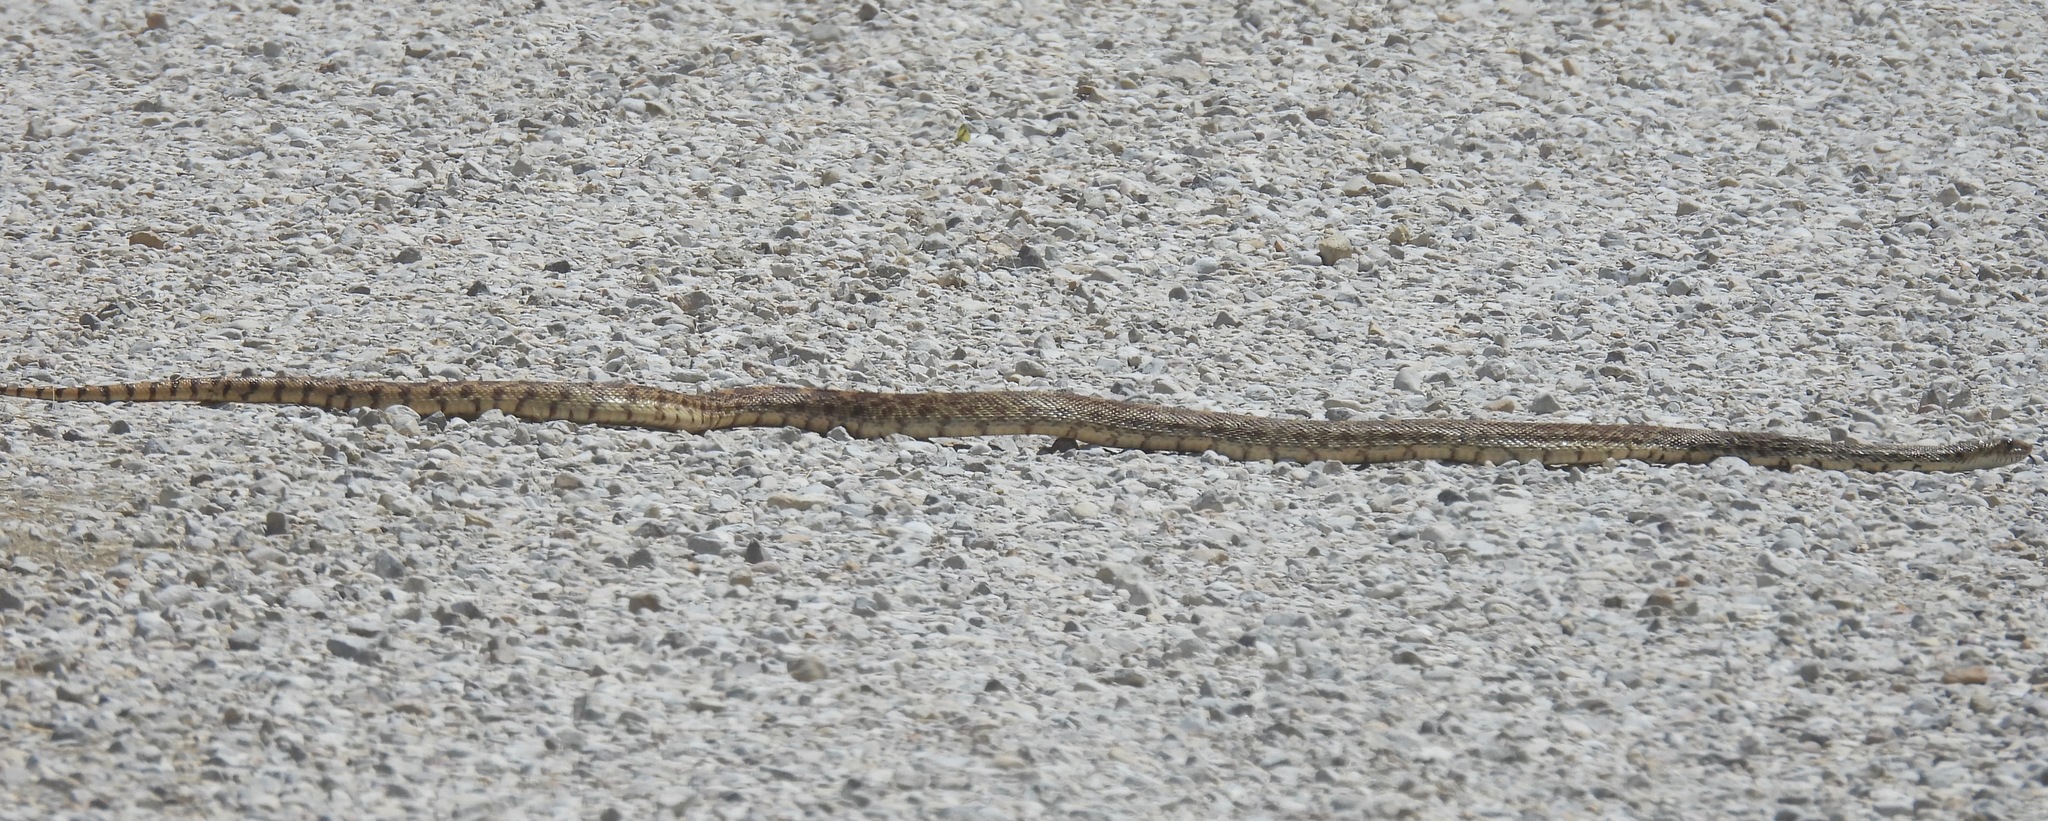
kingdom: Animalia
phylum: Chordata
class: Squamata
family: Colubridae
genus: Pituophis
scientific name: Pituophis catenifer
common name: Gopher snake
